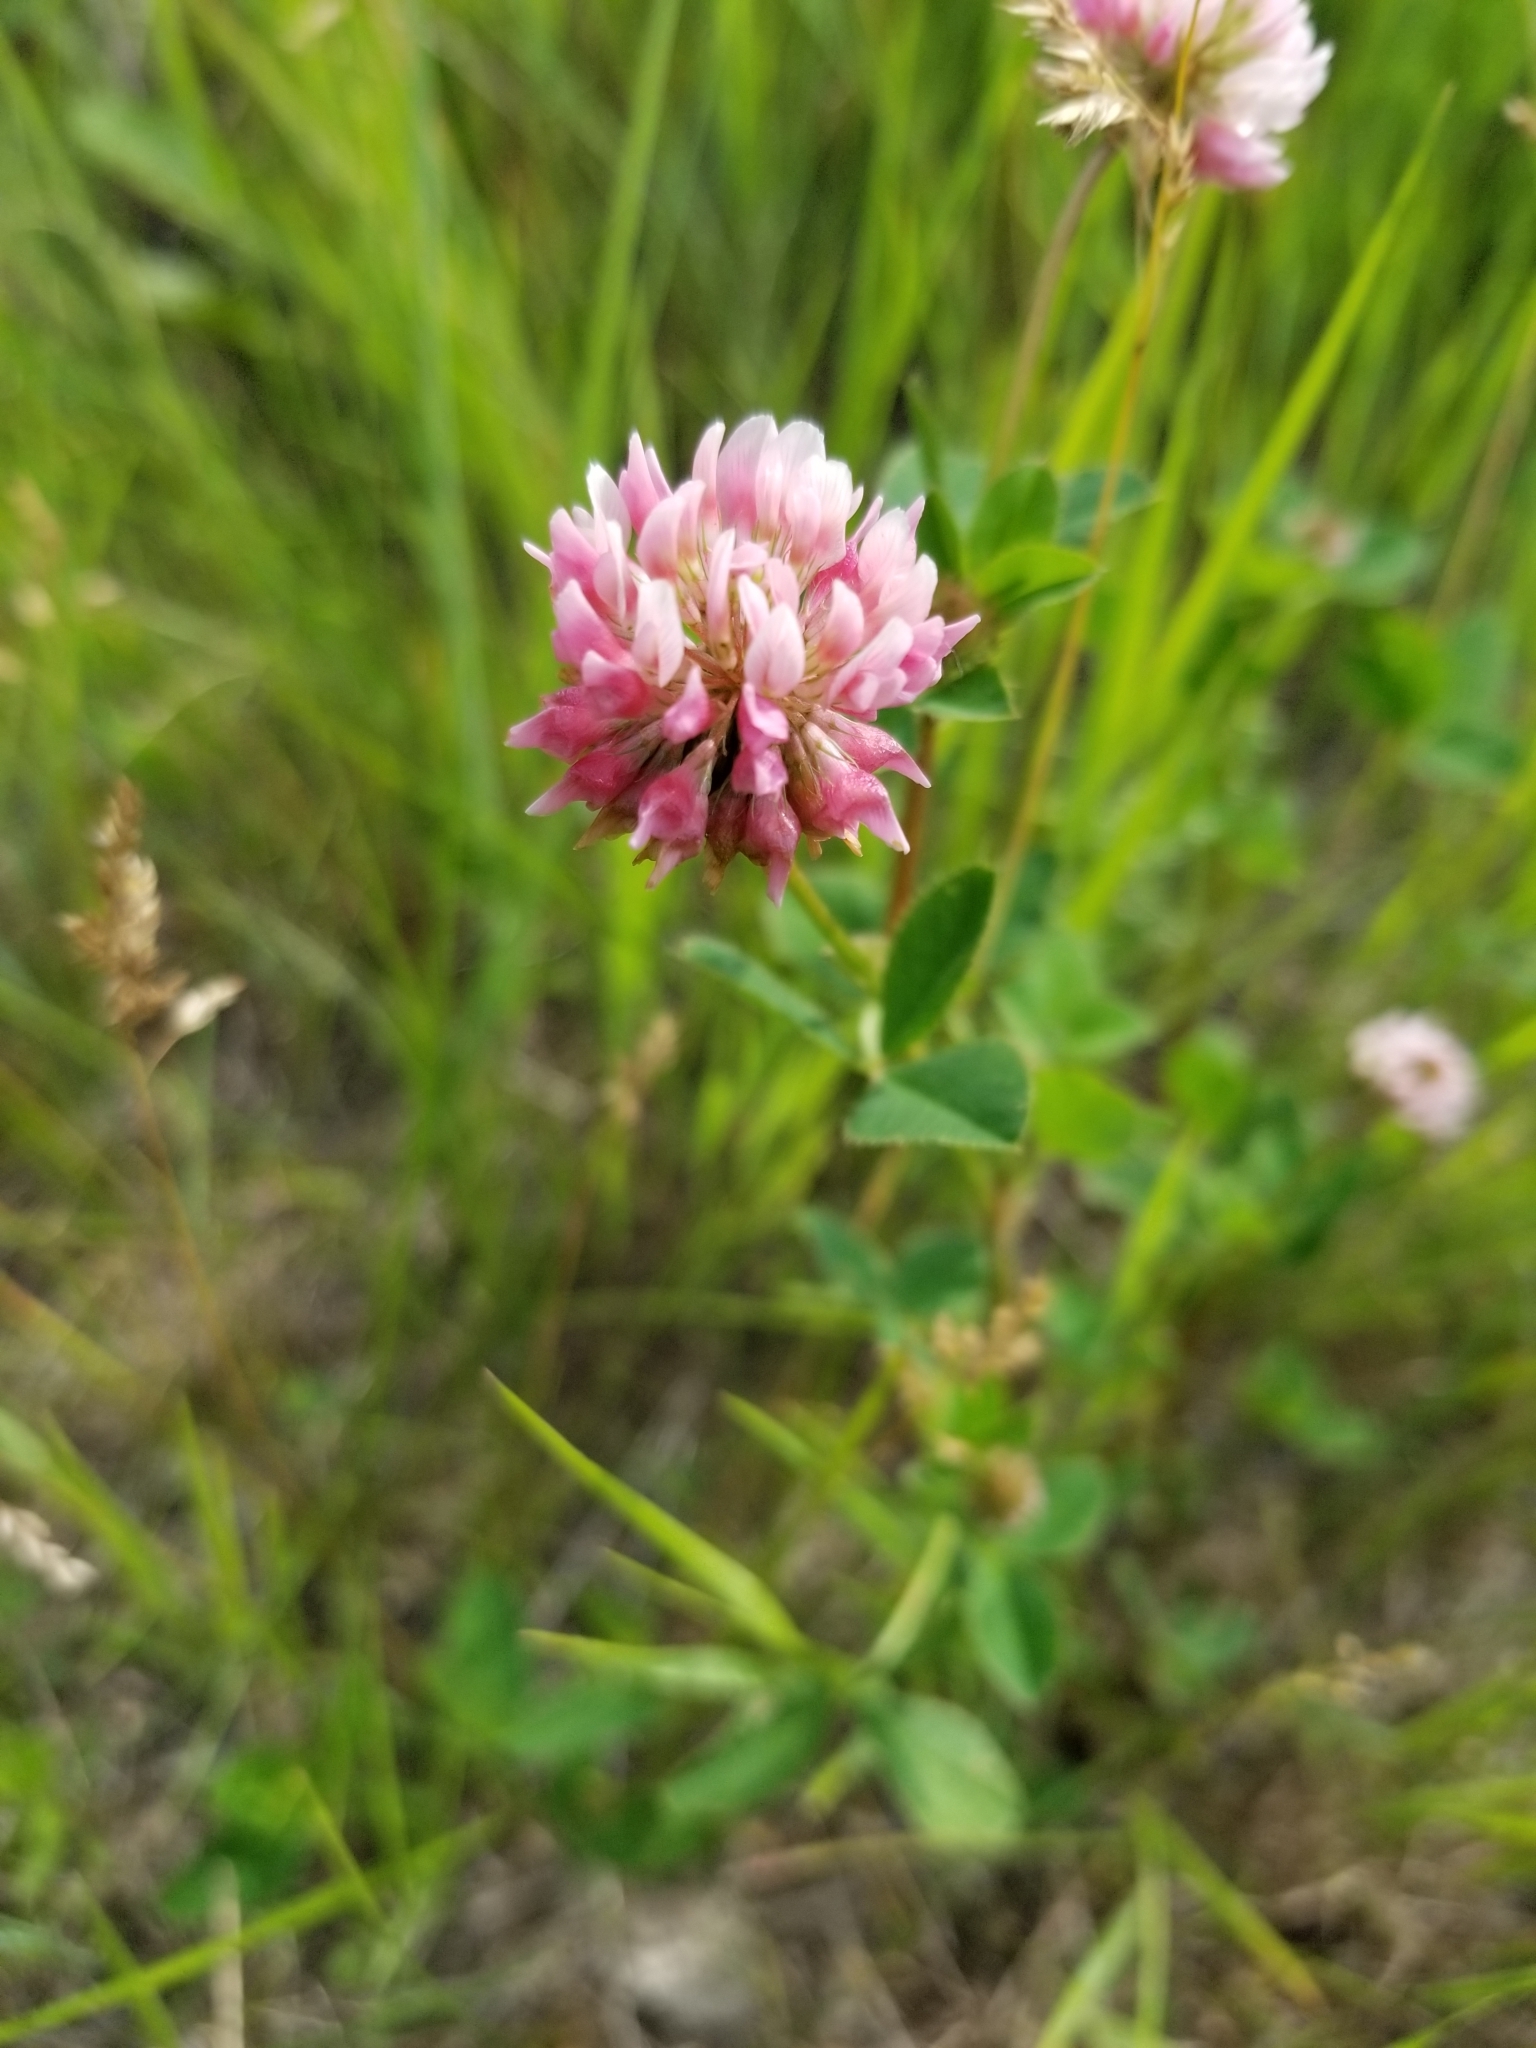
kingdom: Plantae
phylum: Tracheophyta
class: Magnoliopsida
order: Fabales
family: Fabaceae
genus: Trifolium
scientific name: Trifolium hybridum
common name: Alsike clover
